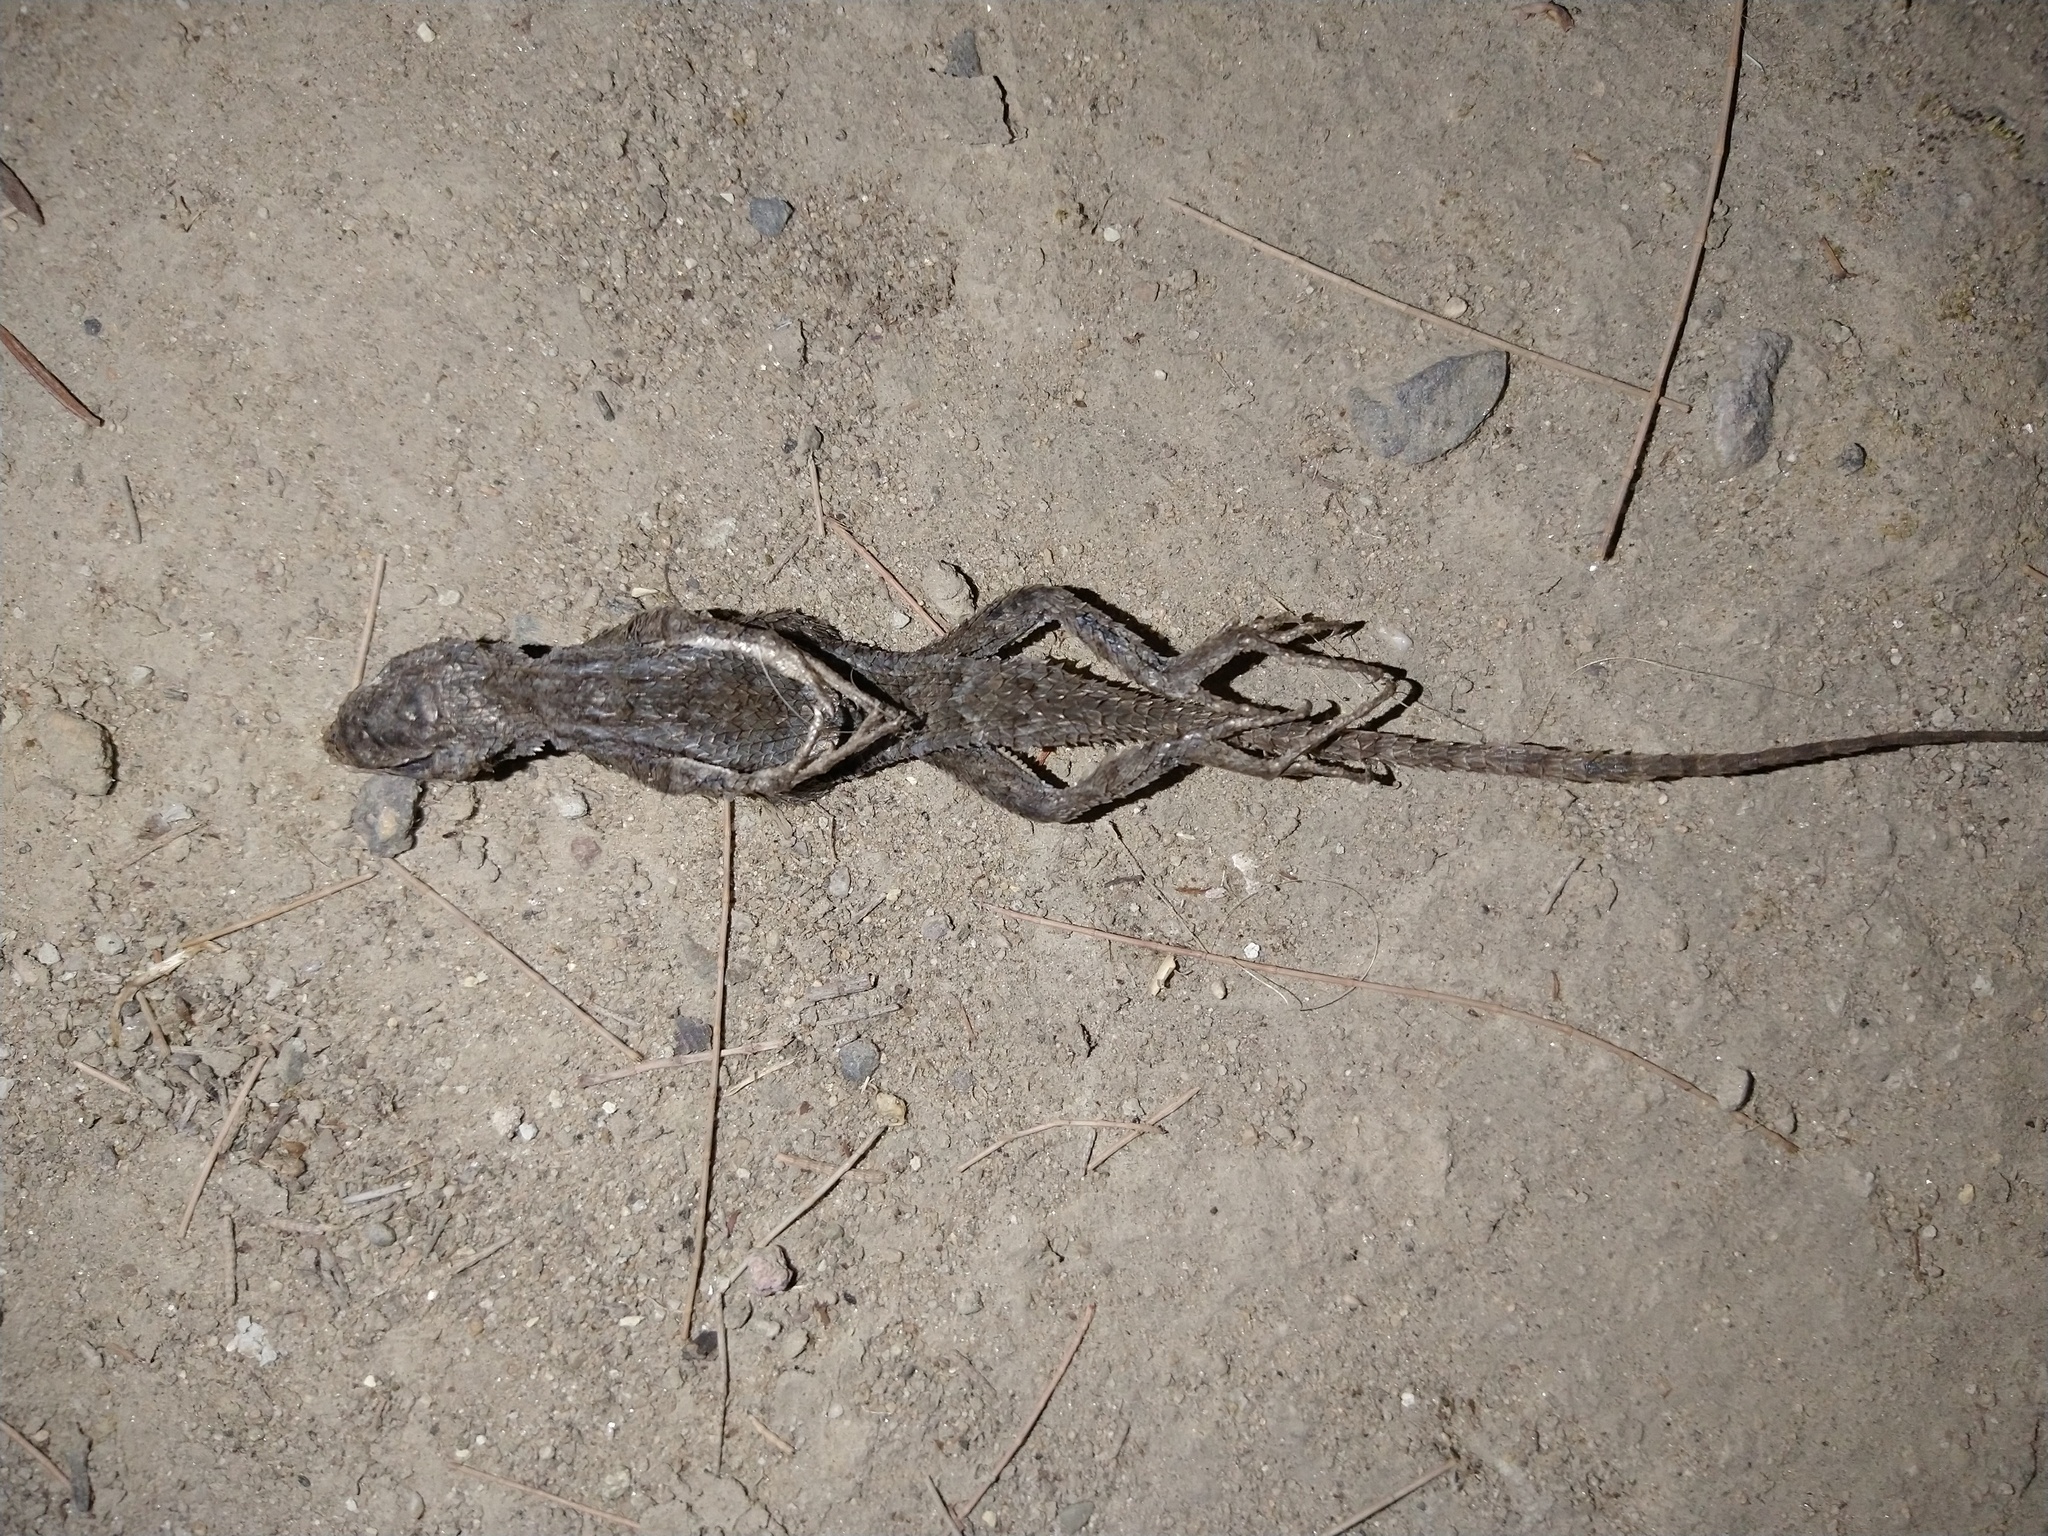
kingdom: Animalia
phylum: Chordata
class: Squamata
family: Phrynosomatidae
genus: Sceloporus
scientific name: Sceloporus occidentalis
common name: Western fence lizard
